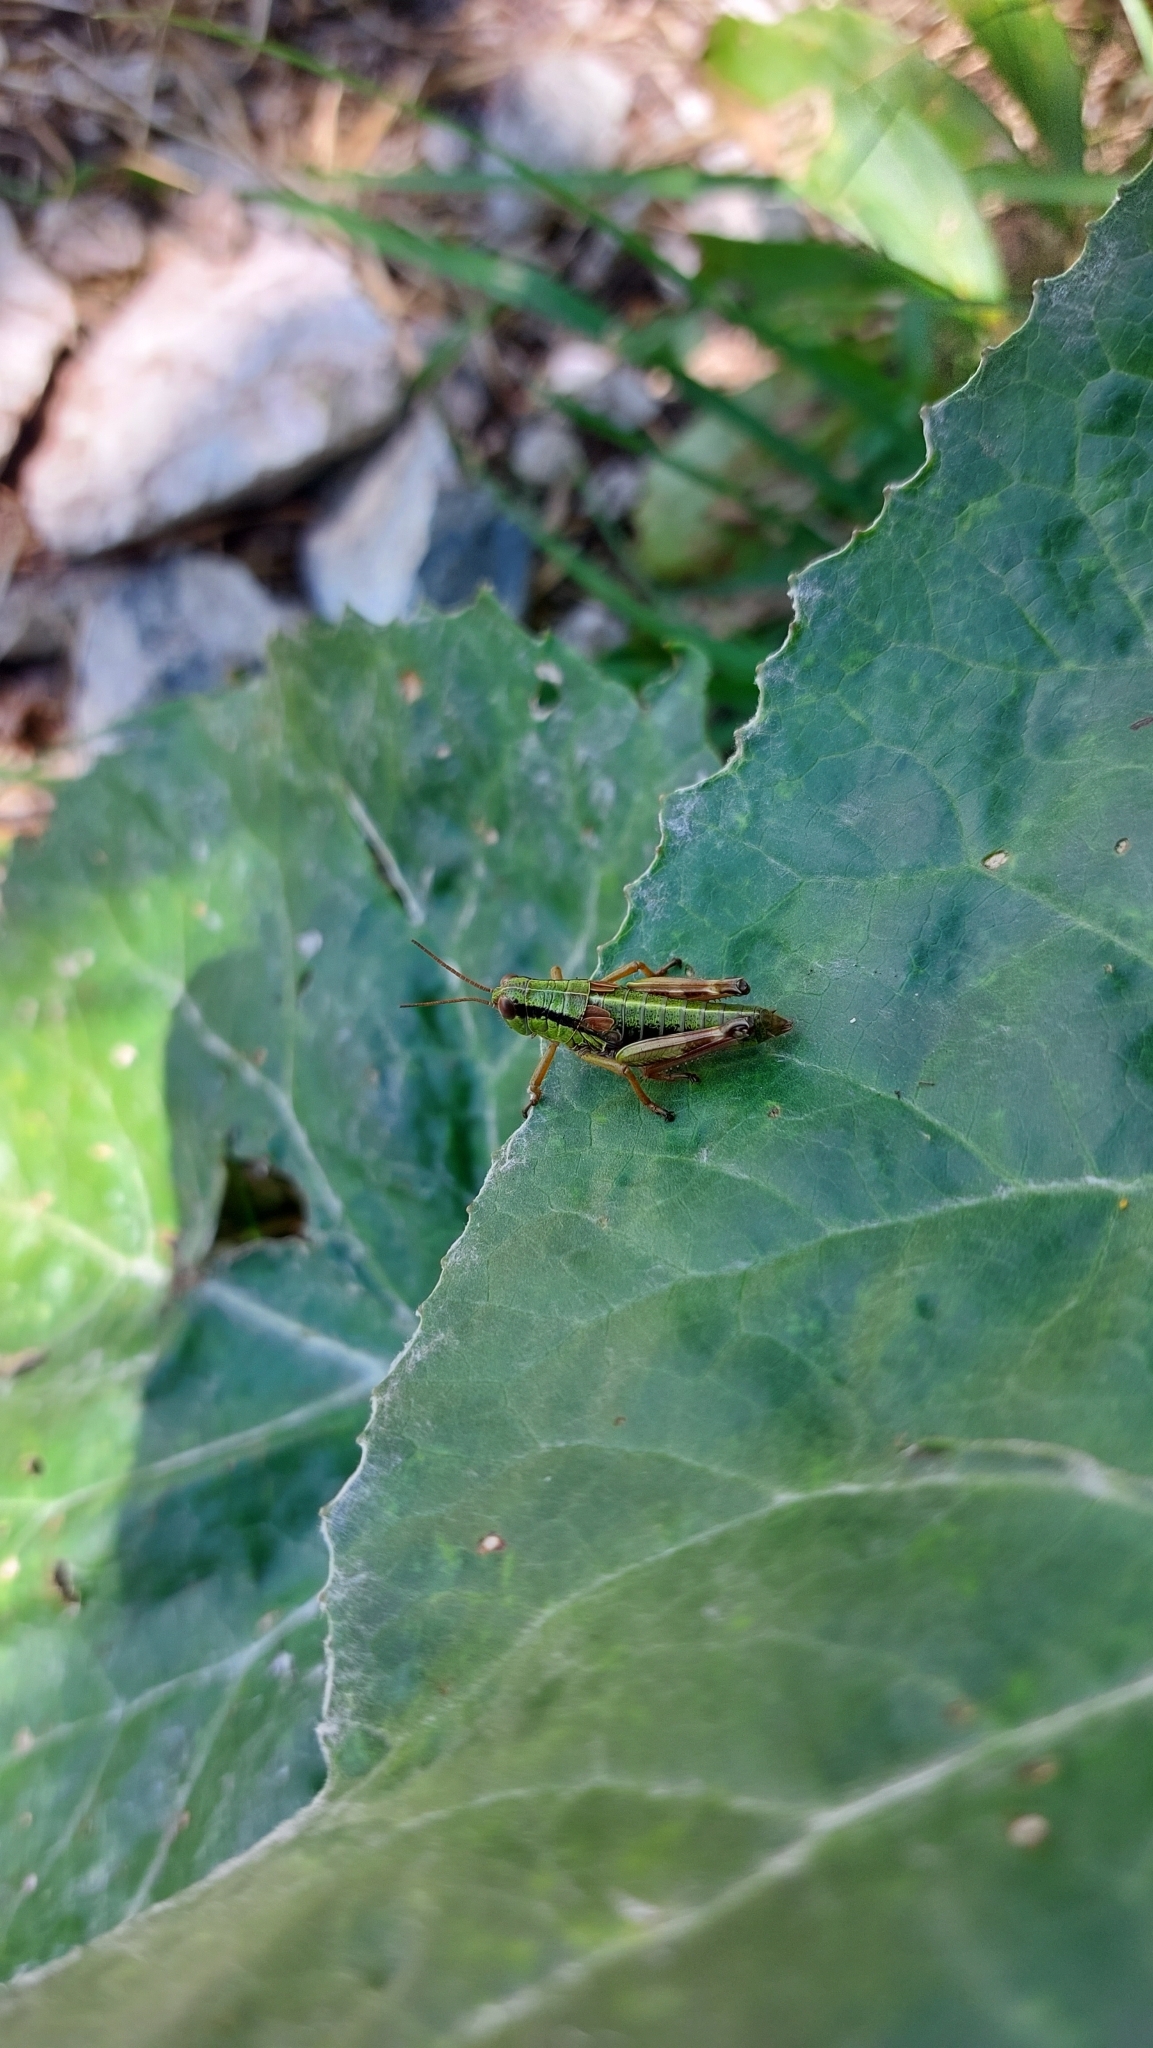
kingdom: Animalia
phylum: Arthropoda
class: Insecta
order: Orthoptera
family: Acrididae
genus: Miramella
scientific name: Miramella alpina
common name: Green mountain grasshopper
